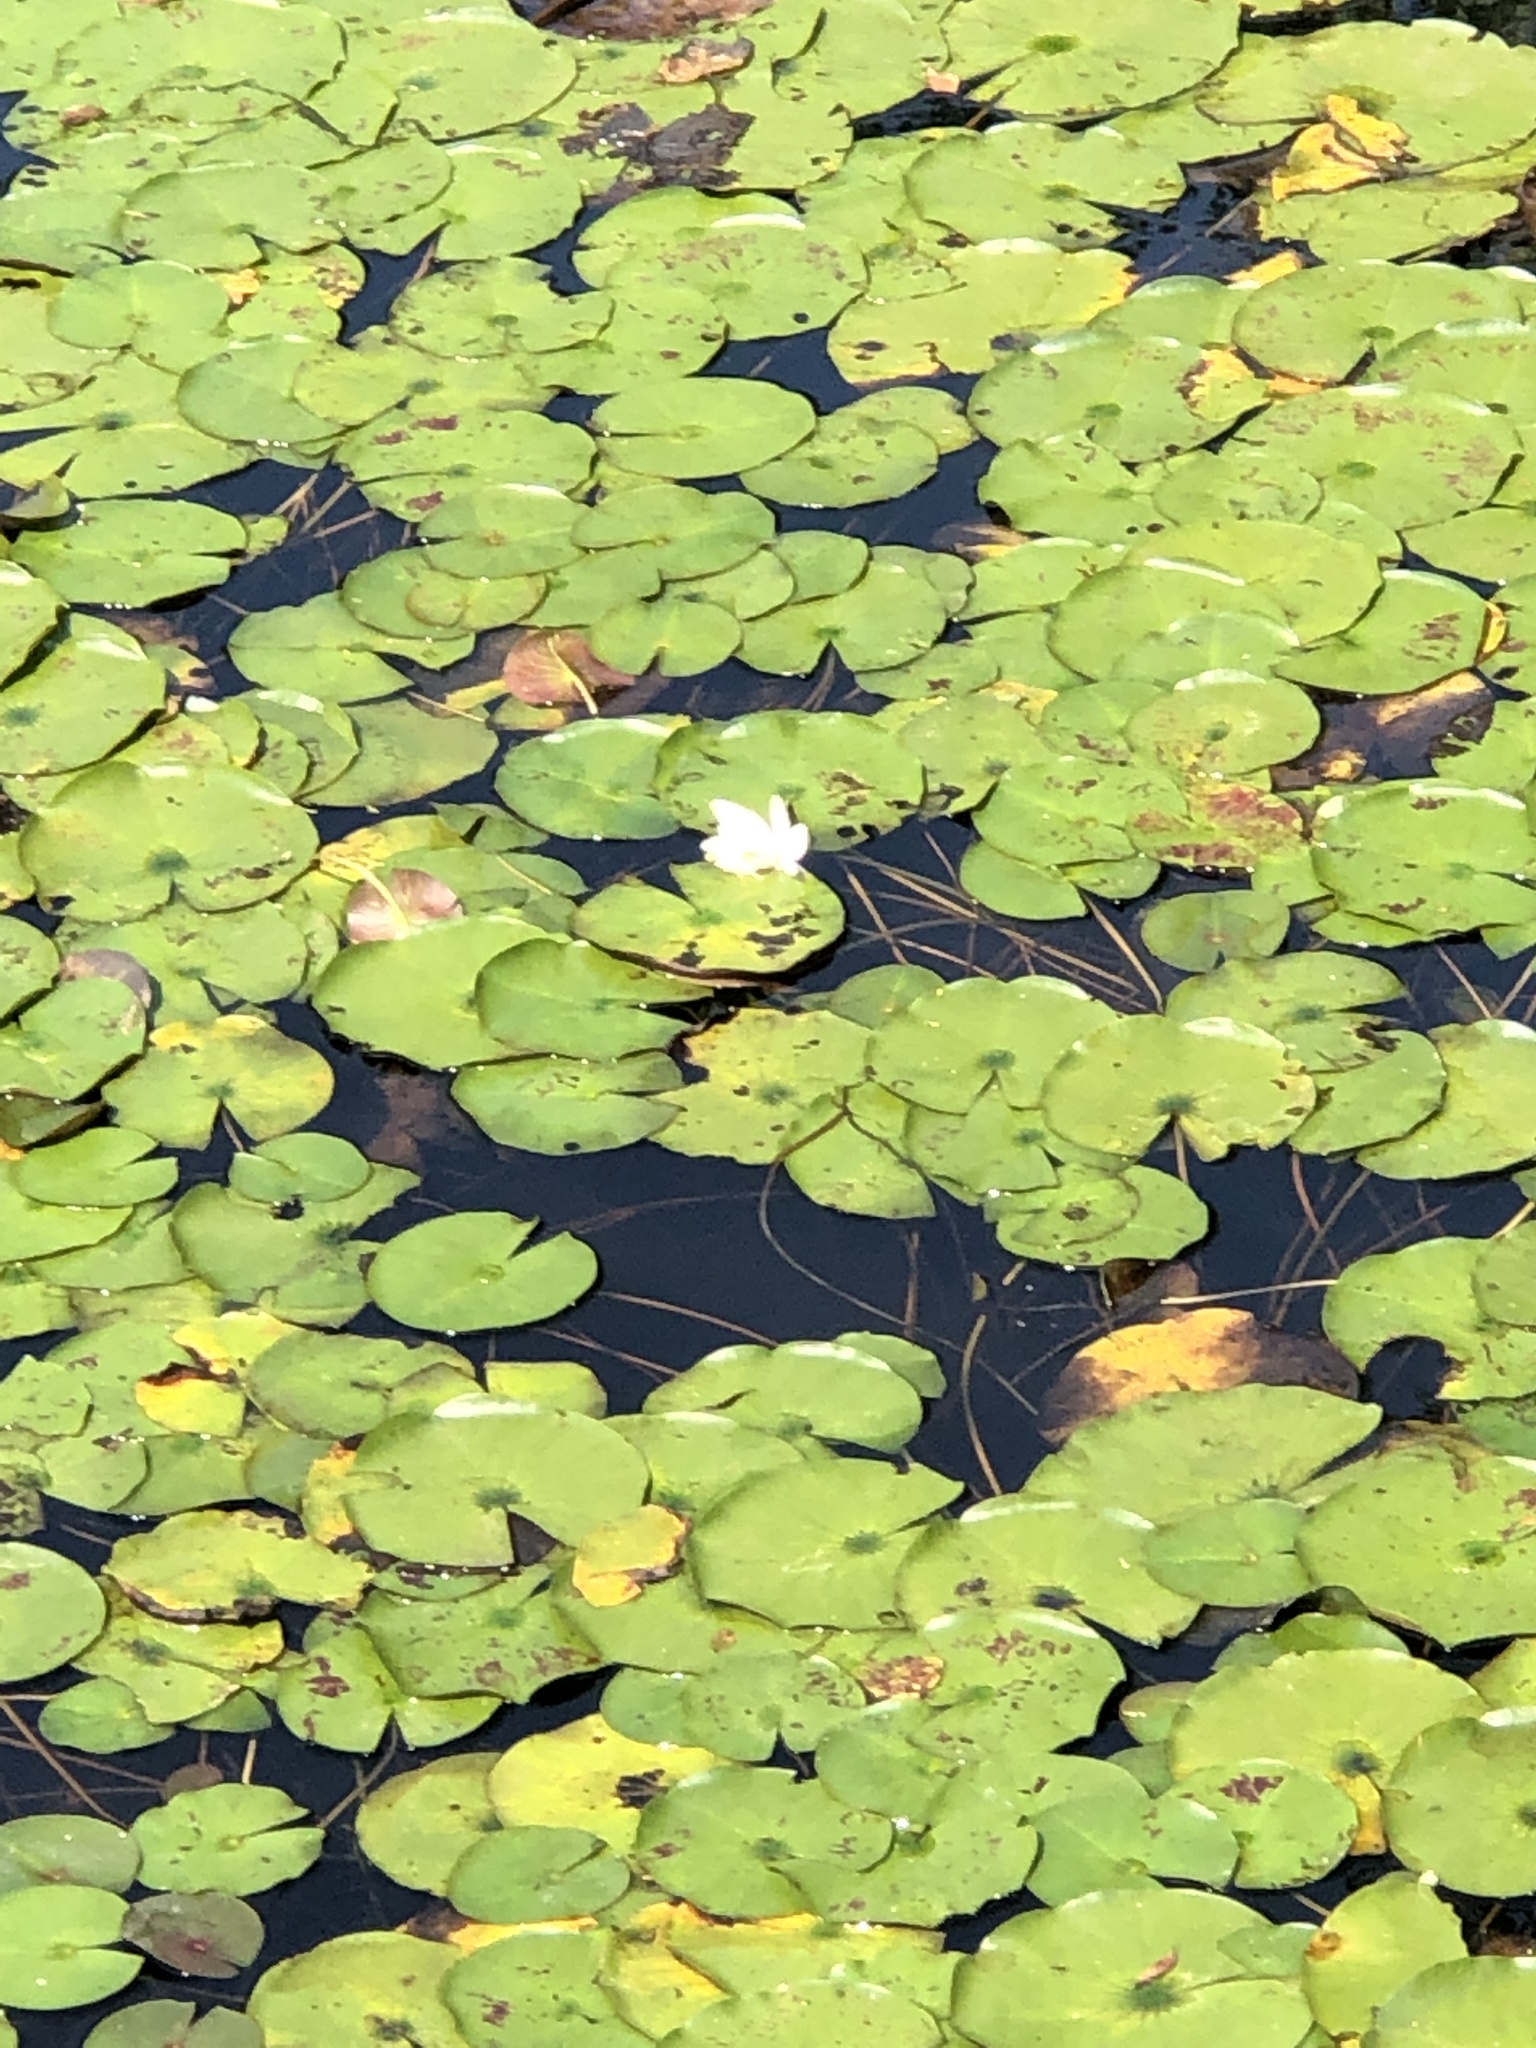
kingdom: Plantae
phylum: Tracheophyta
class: Magnoliopsida
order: Nymphaeales
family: Nymphaeaceae
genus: Nymphaea
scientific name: Nymphaea odorata
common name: Fragrant water-lily
